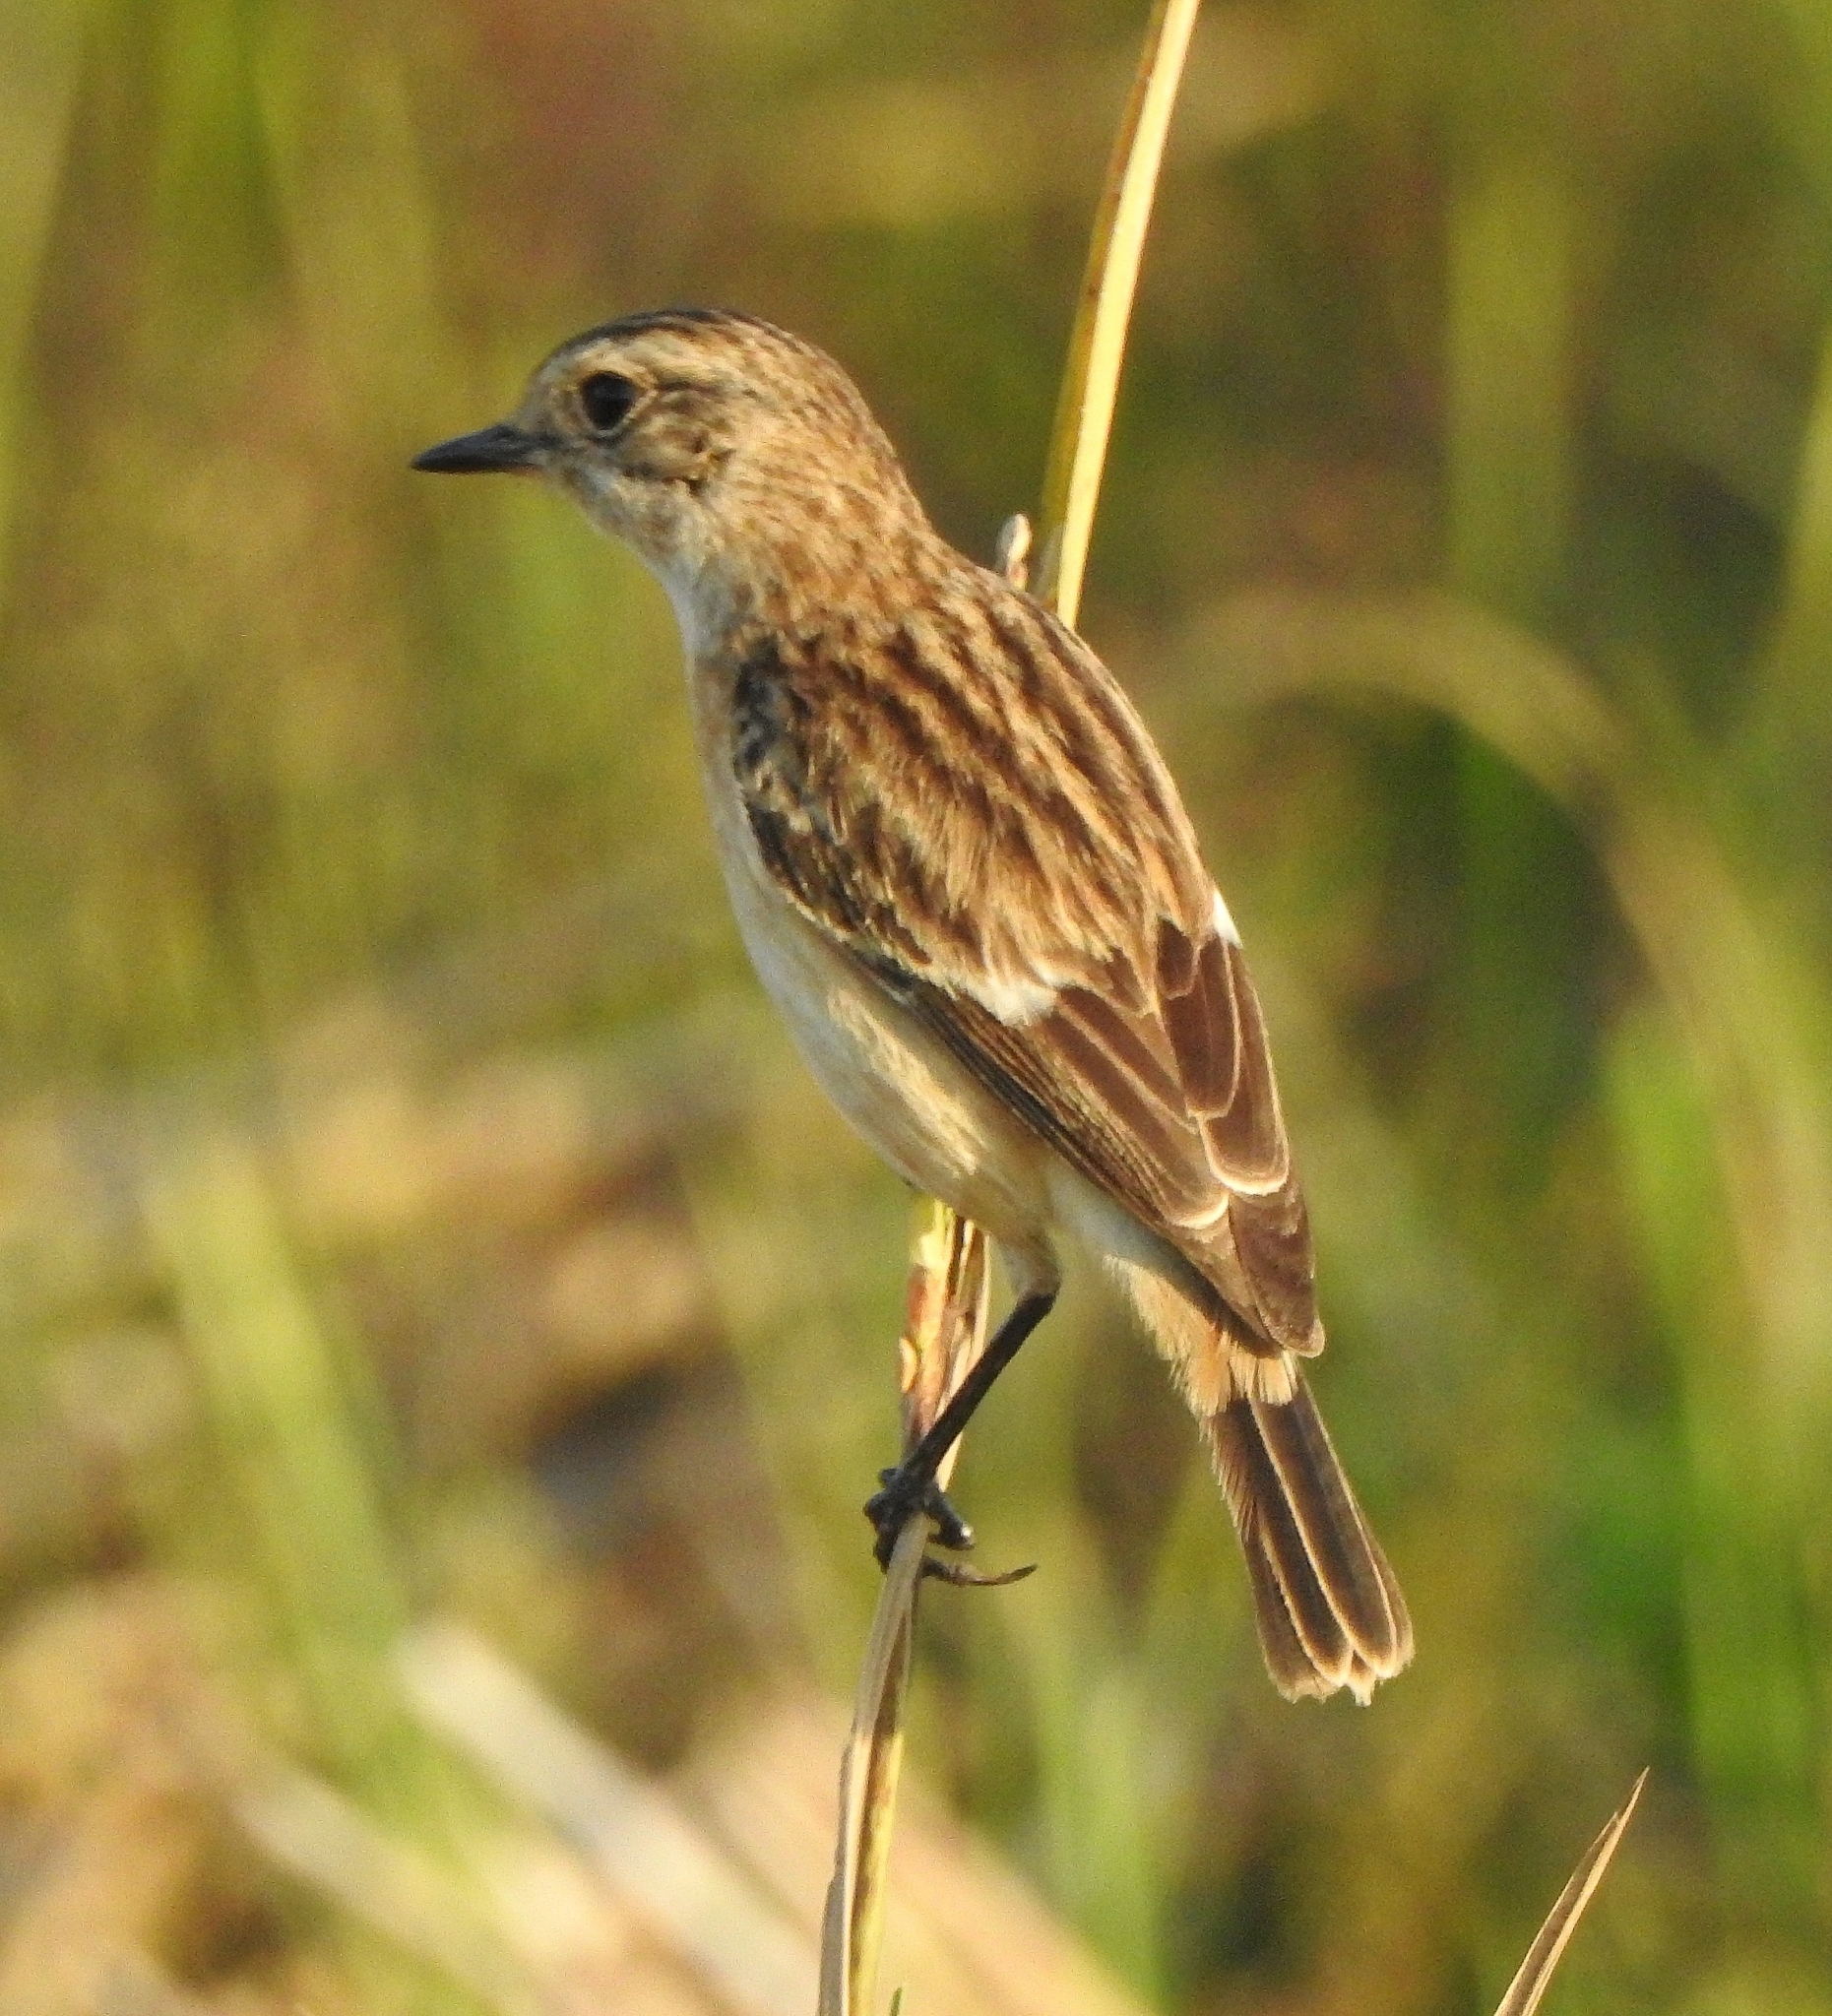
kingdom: Animalia
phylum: Chordata
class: Aves
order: Passeriformes
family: Muscicapidae
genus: Saxicola
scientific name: Saxicola maurus
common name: Siberian stonechat
